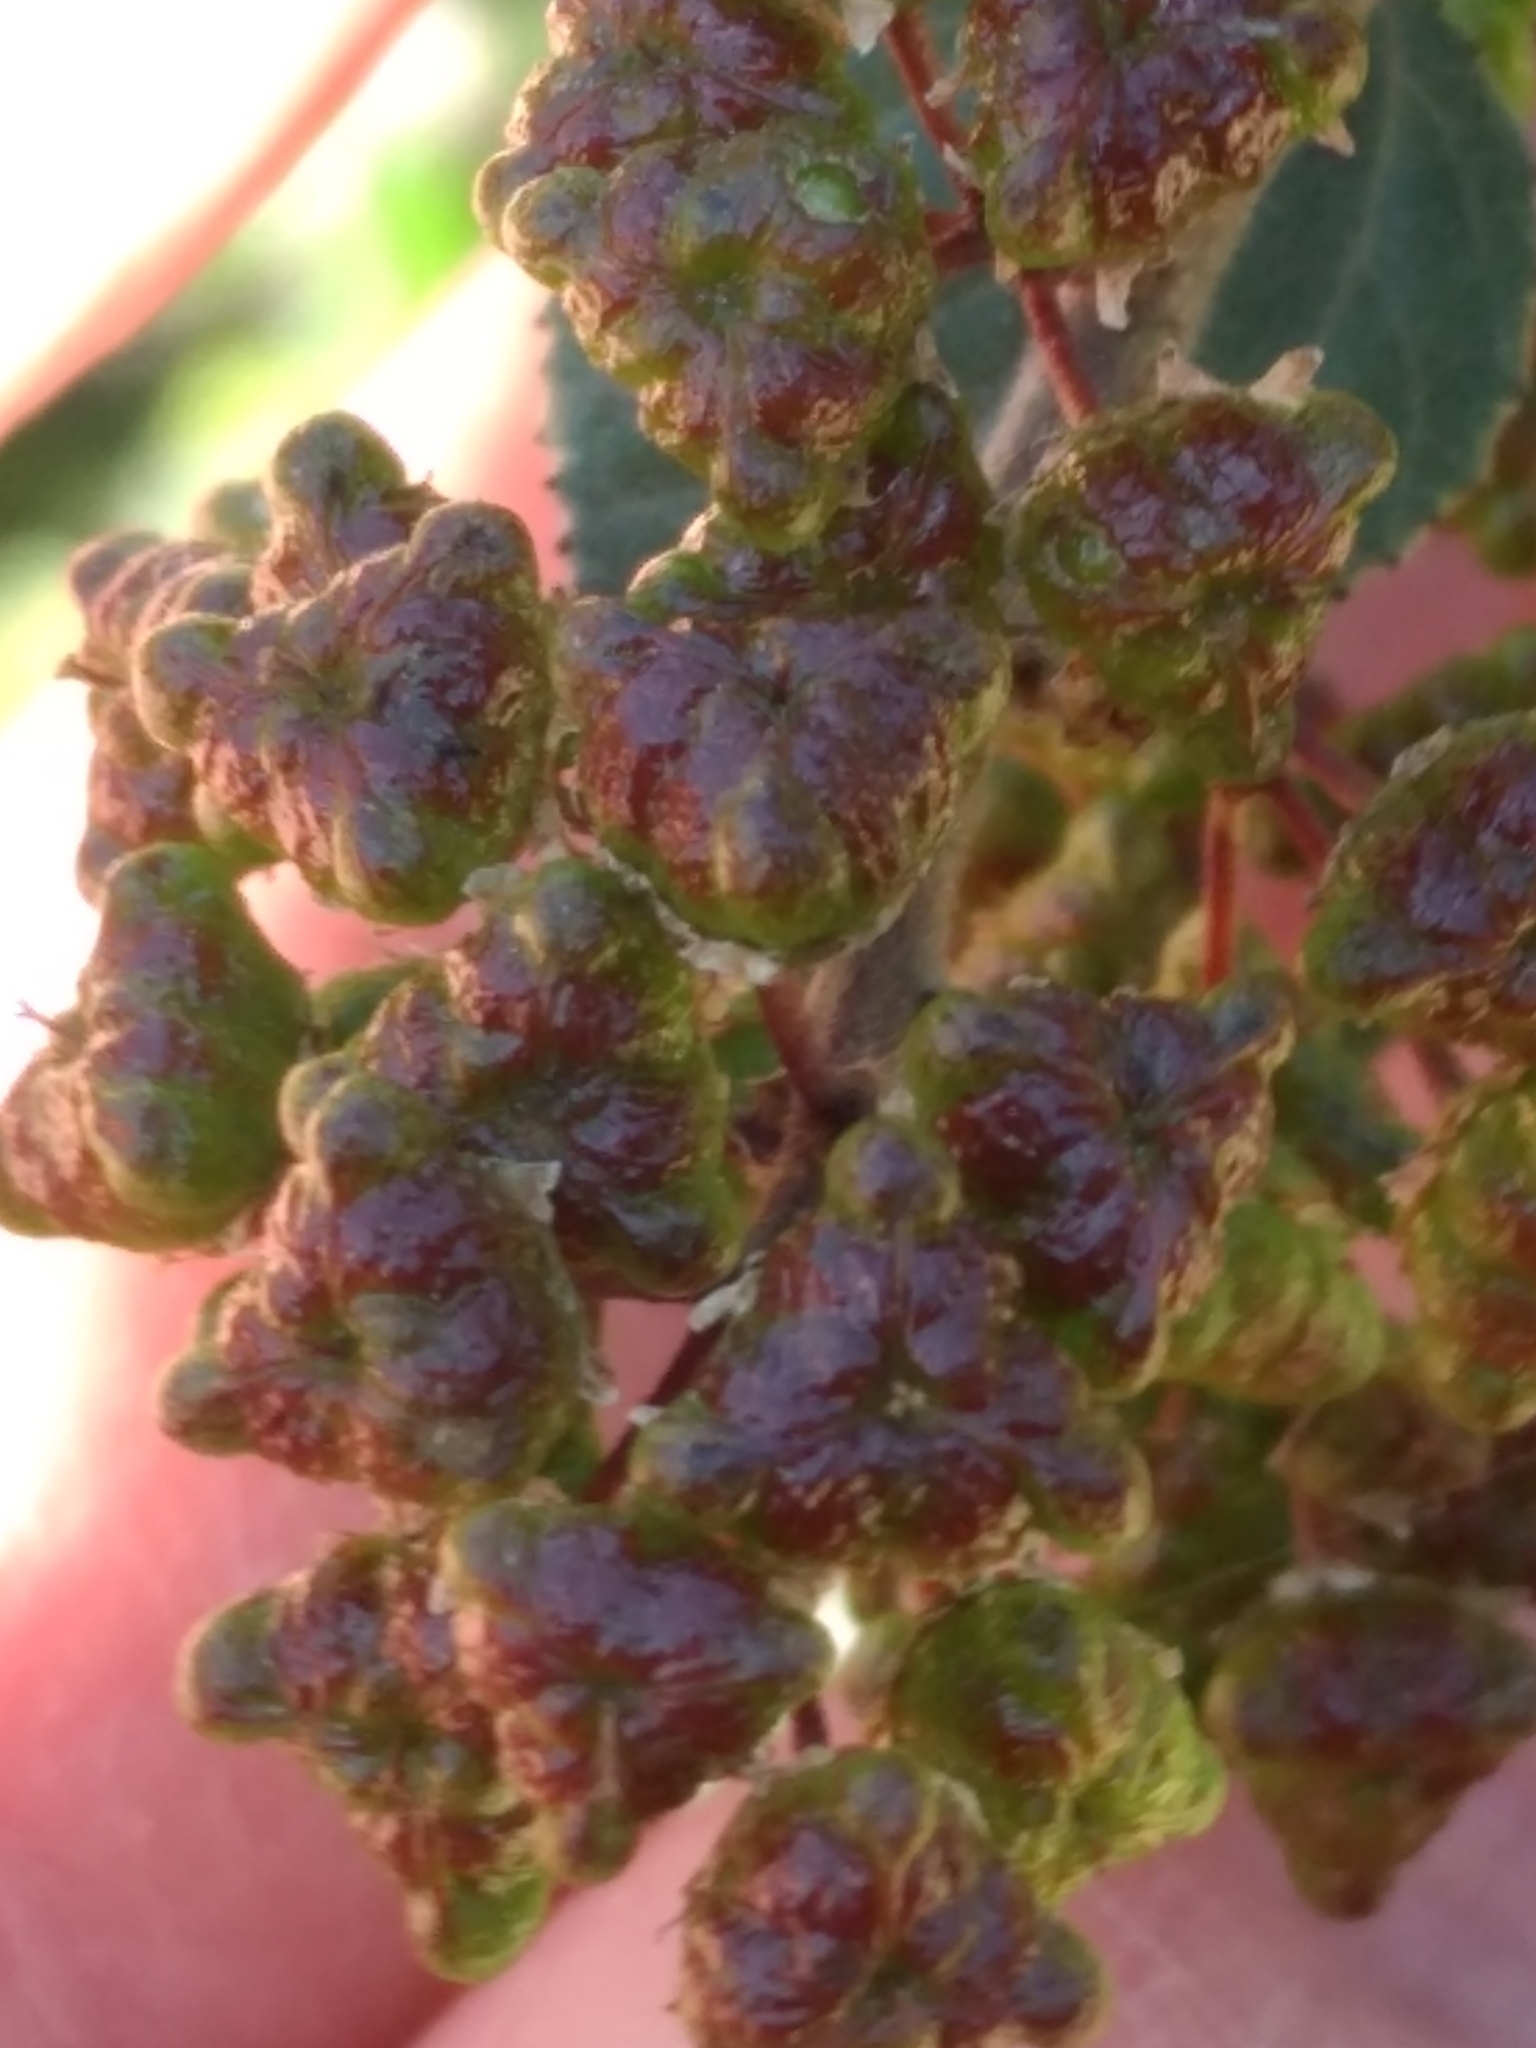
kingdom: Plantae
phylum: Tracheophyta
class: Magnoliopsida
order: Rosales
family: Rhamnaceae
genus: Ceanothus
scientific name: Ceanothus tomentosus
